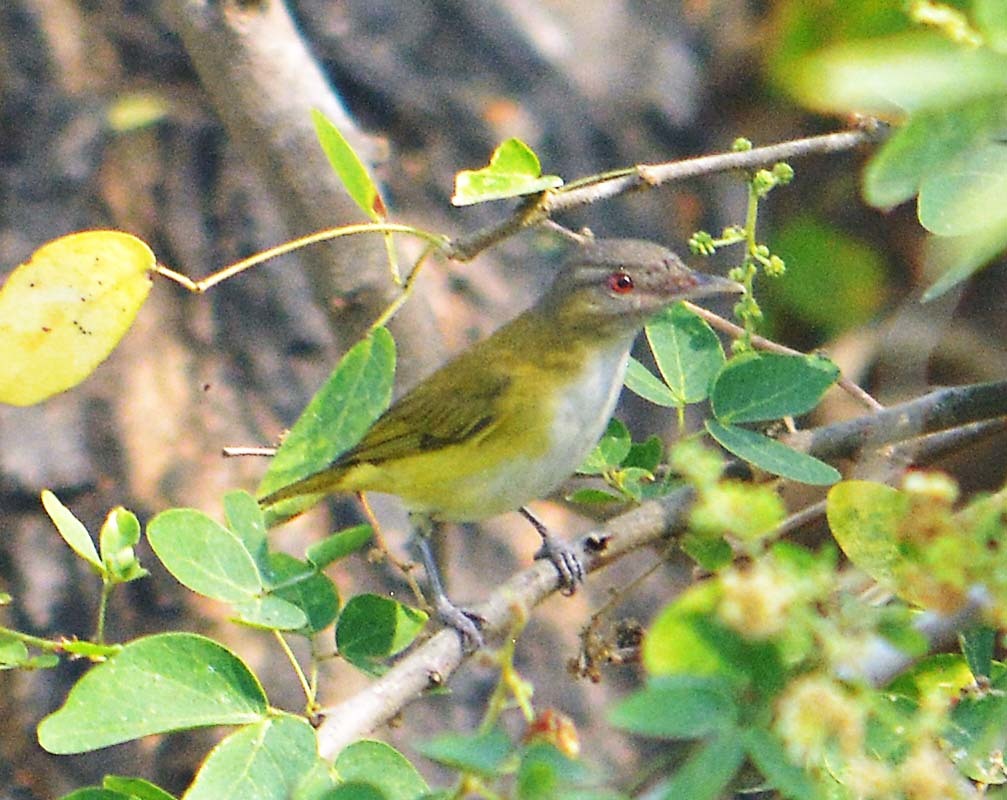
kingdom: Animalia
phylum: Chordata
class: Aves
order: Passeriformes
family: Vireonidae
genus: Vireo
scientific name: Vireo flavoviridis
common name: Yellow-green vireo
